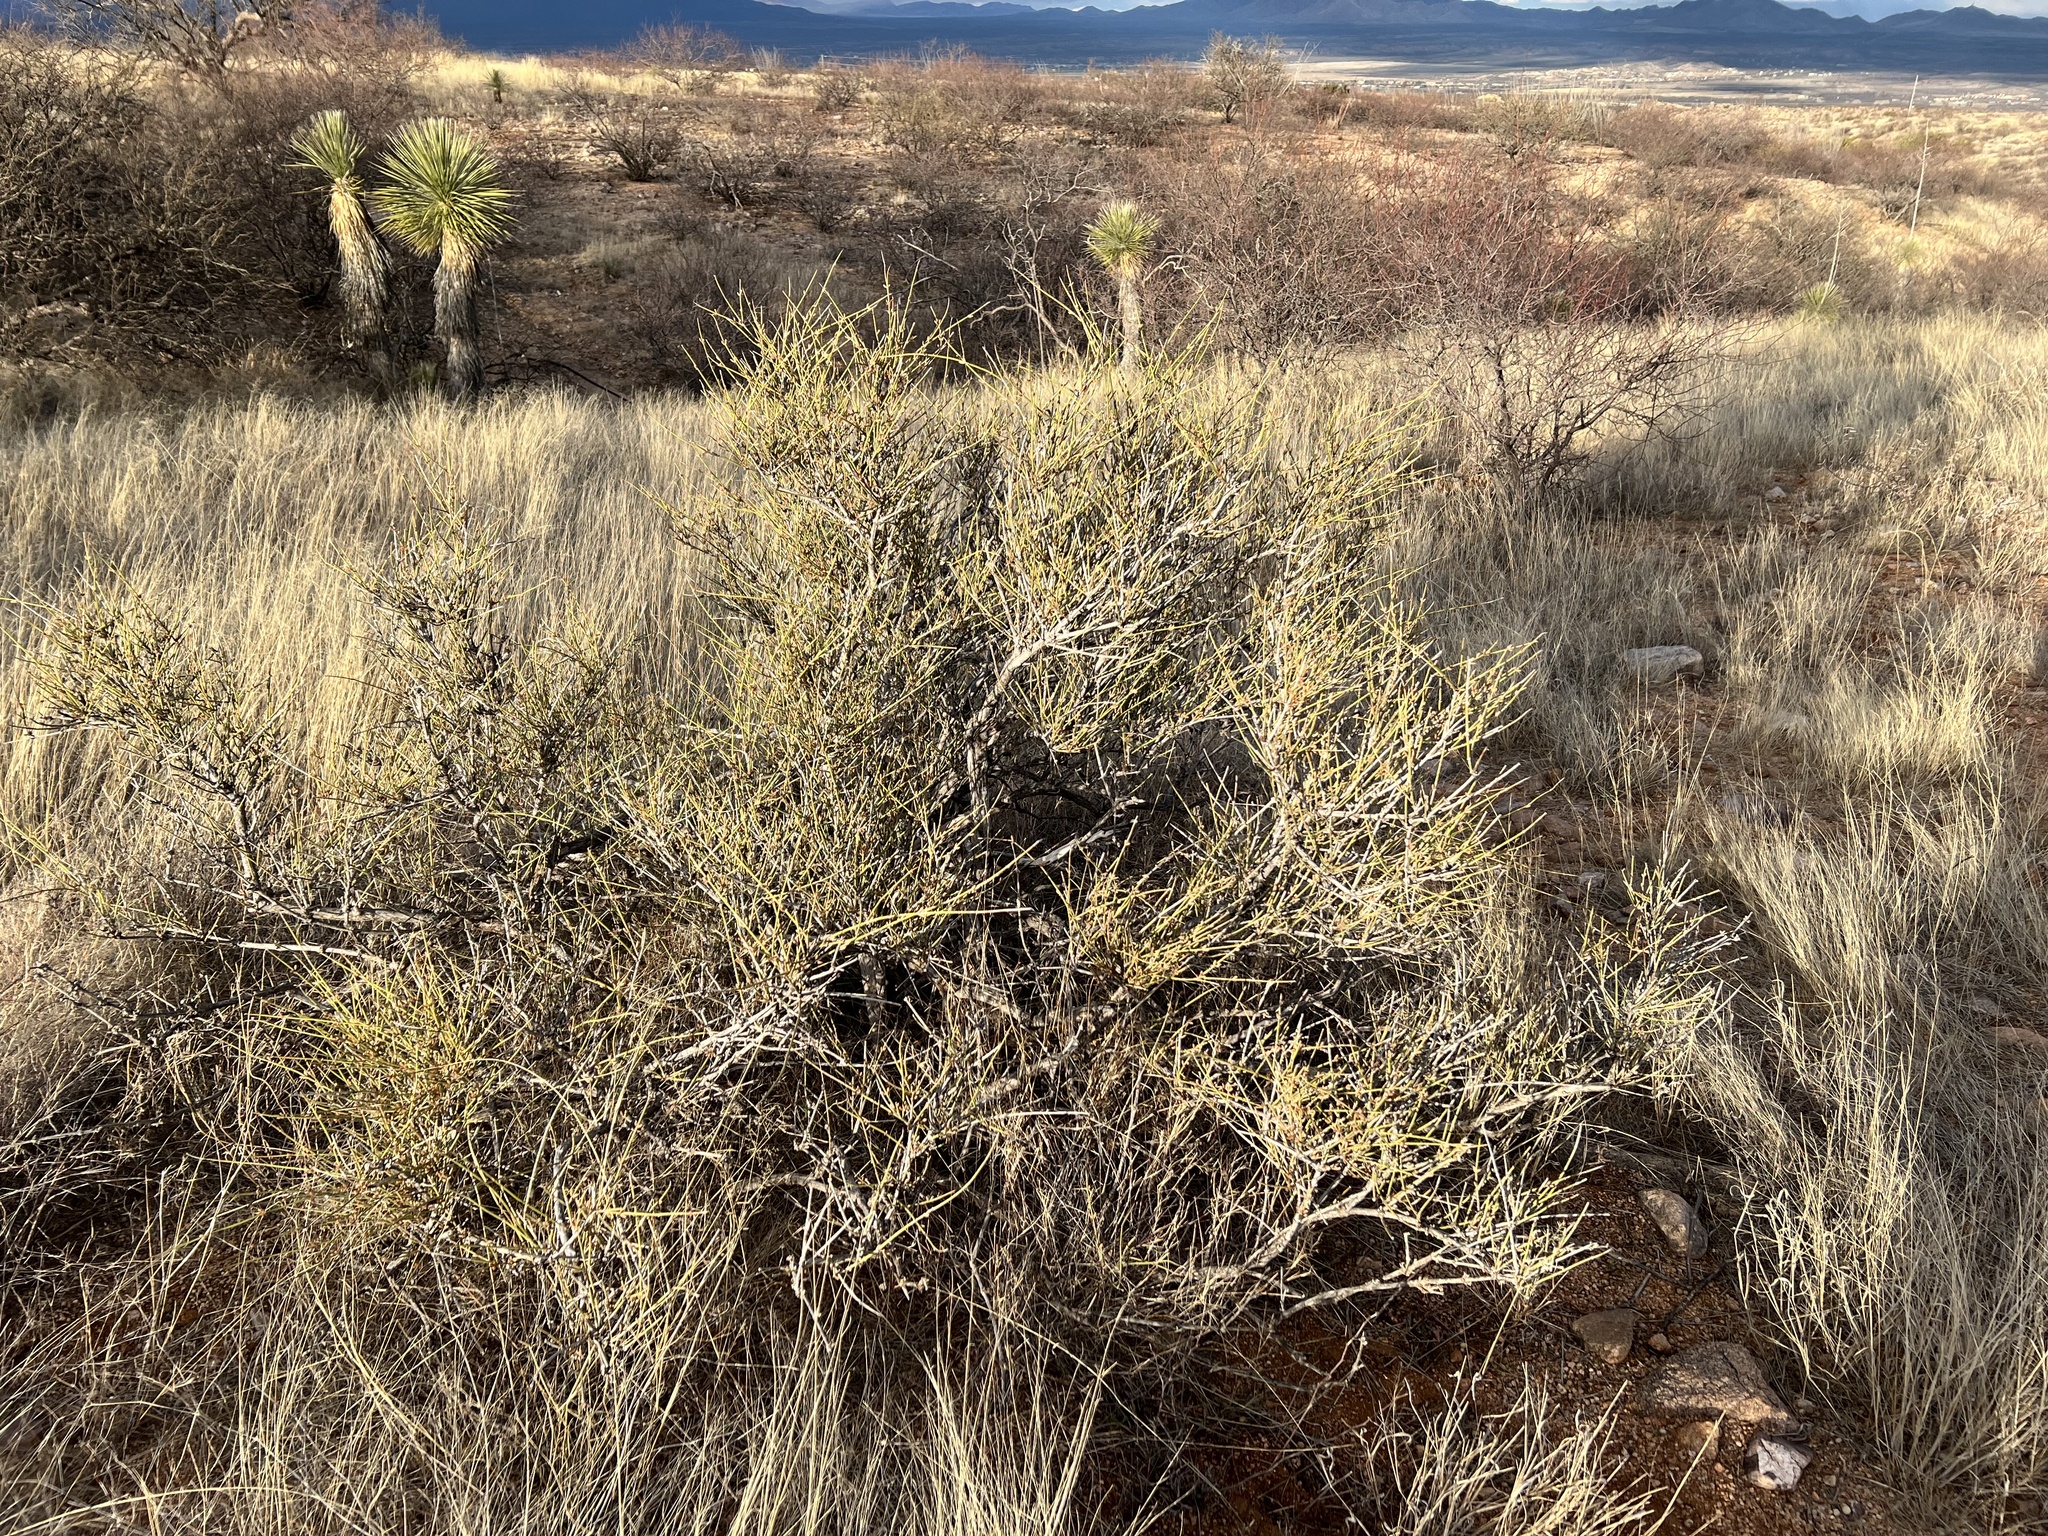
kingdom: Plantae
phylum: Tracheophyta
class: Gnetopsida
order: Ephedrales
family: Ephedraceae
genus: Ephedra
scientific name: Ephedra trifurca
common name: Mexican-tea
